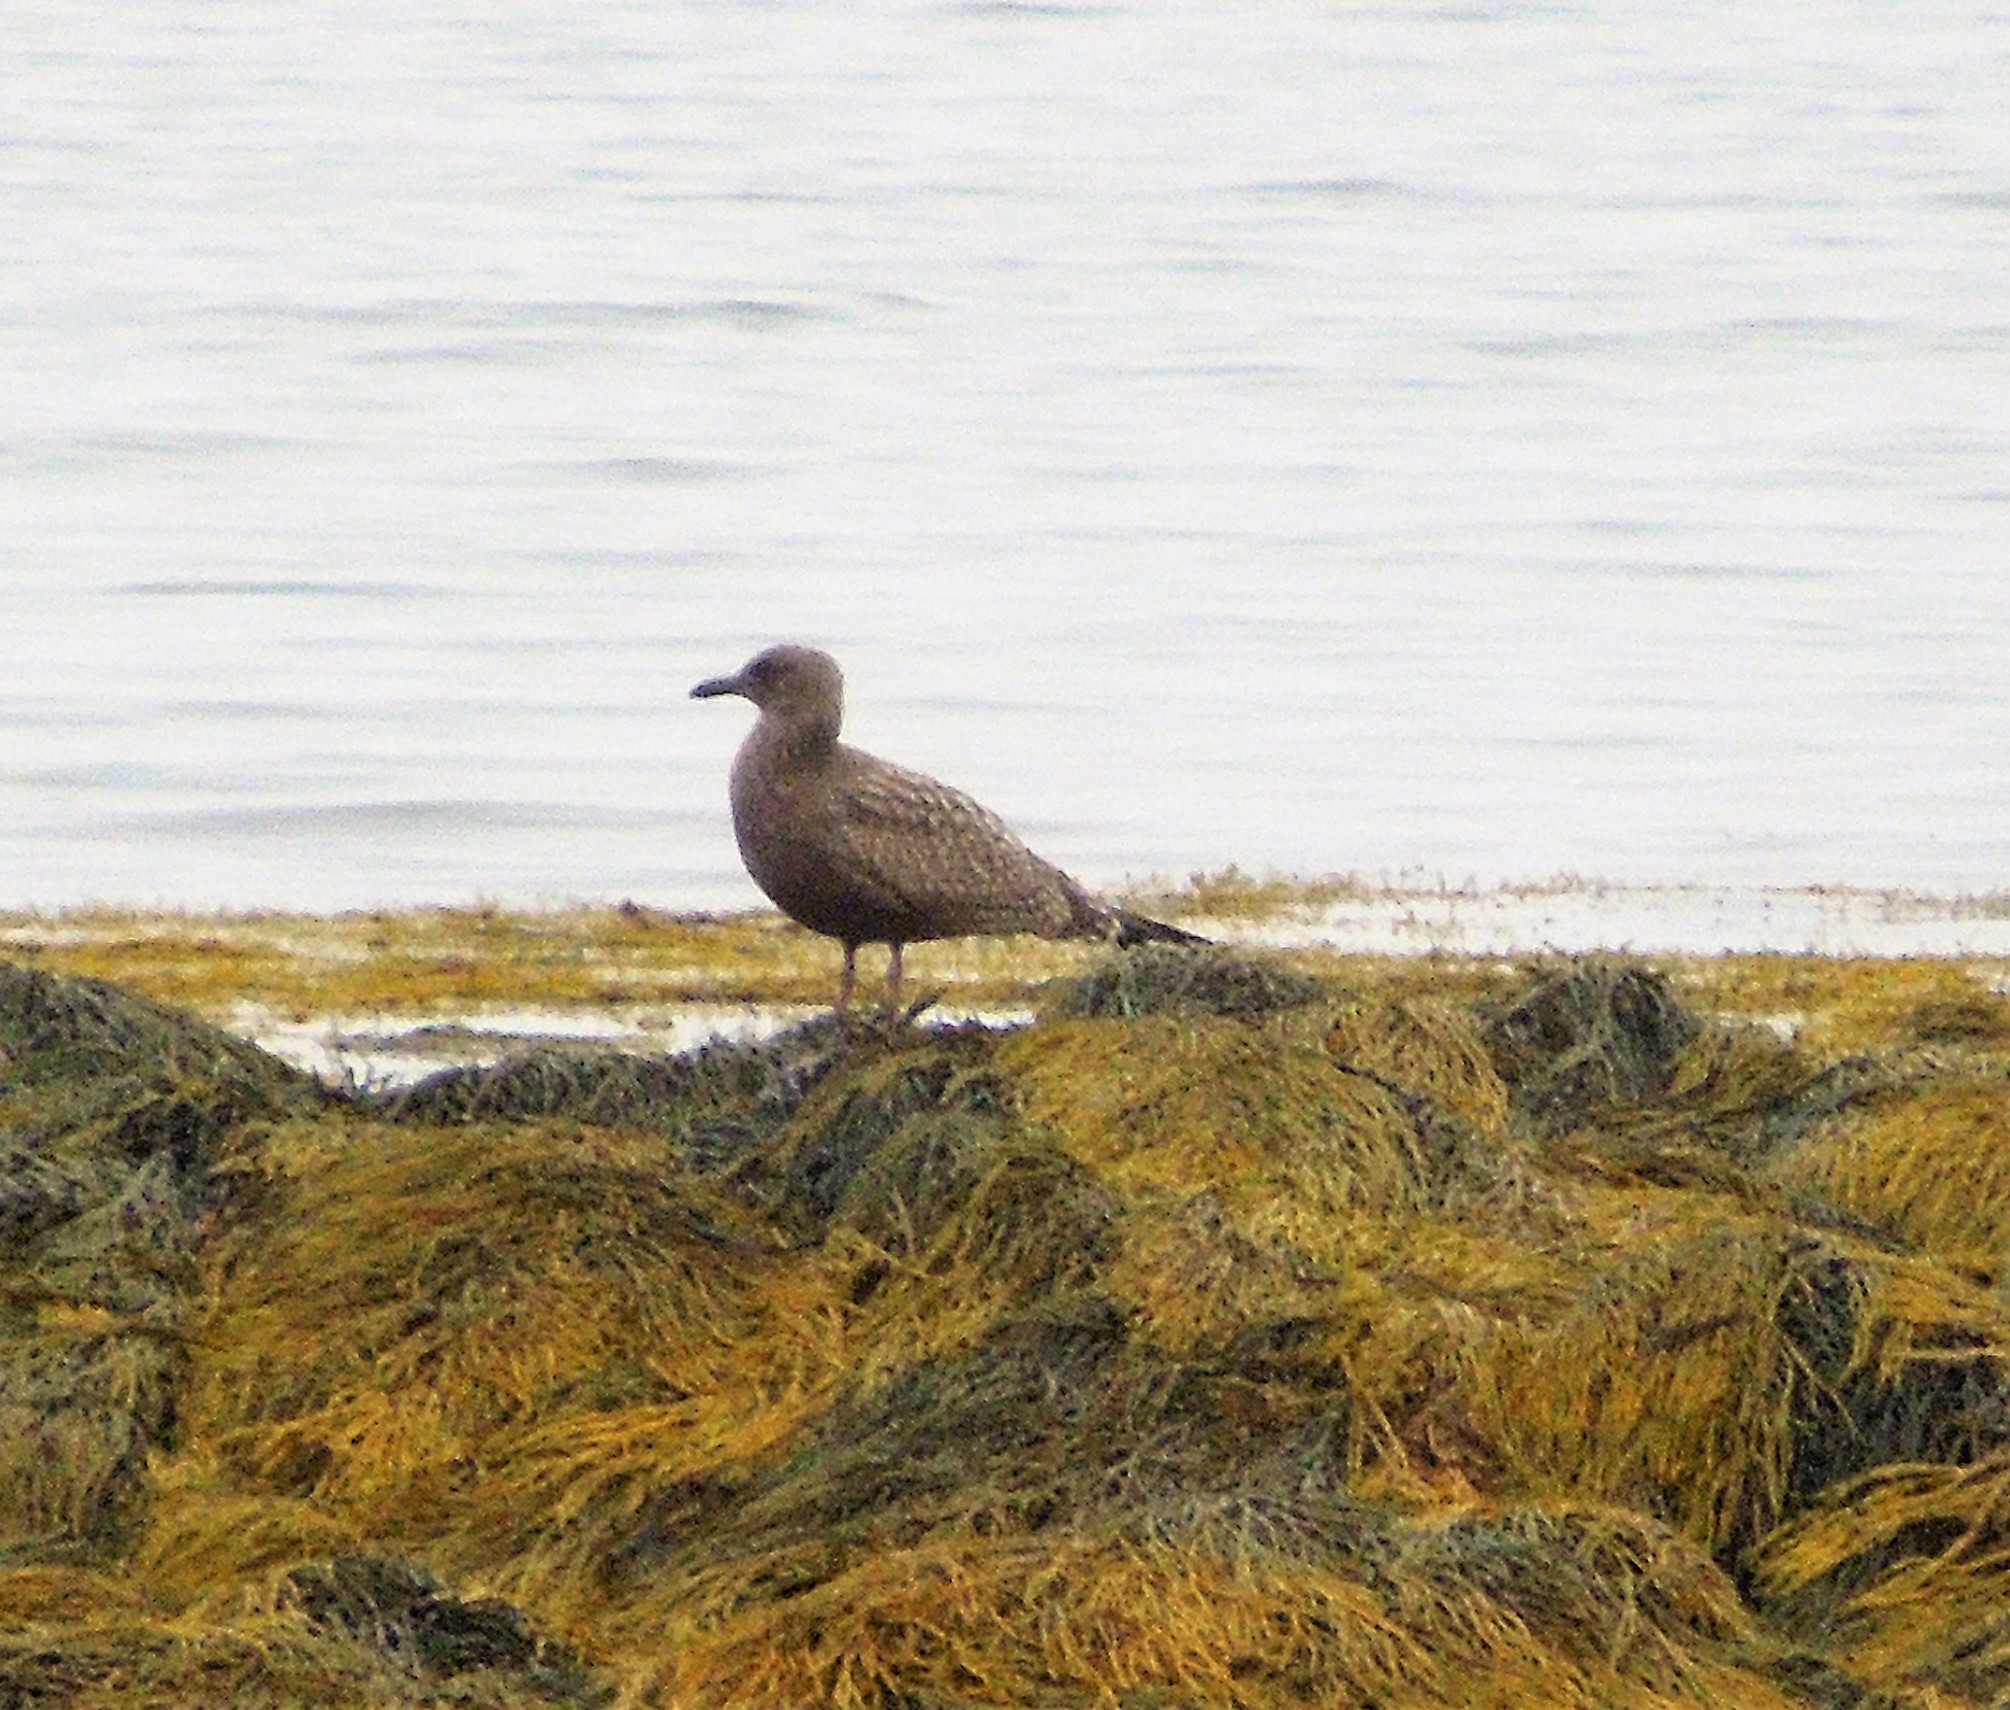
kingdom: Animalia
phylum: Chordata
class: Aves
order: Charadriiformes
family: Laridae
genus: Larus
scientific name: Larus argentatus
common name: Herring gull
